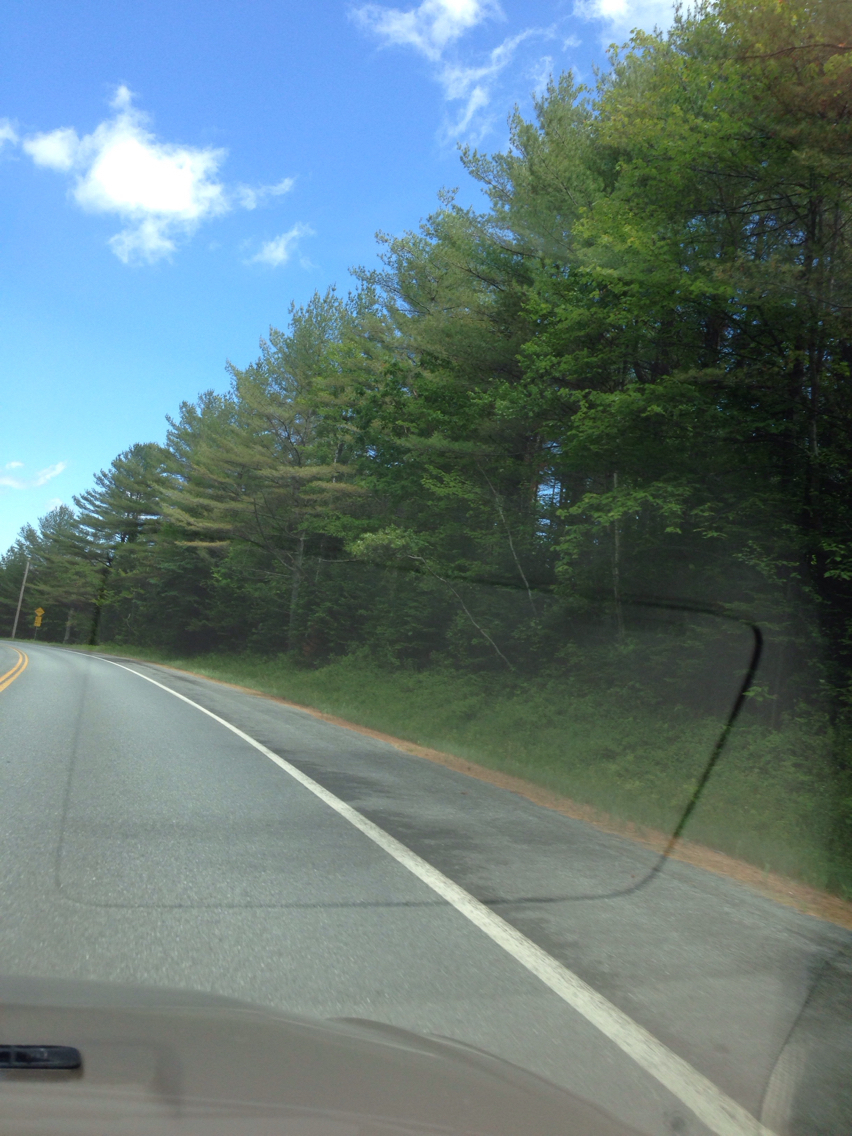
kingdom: Plantae
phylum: Tracheophyta
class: Pinopsida
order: Pinales
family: Pinaceae
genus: Pinus
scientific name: Pinus strobus
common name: Weymouth pine
